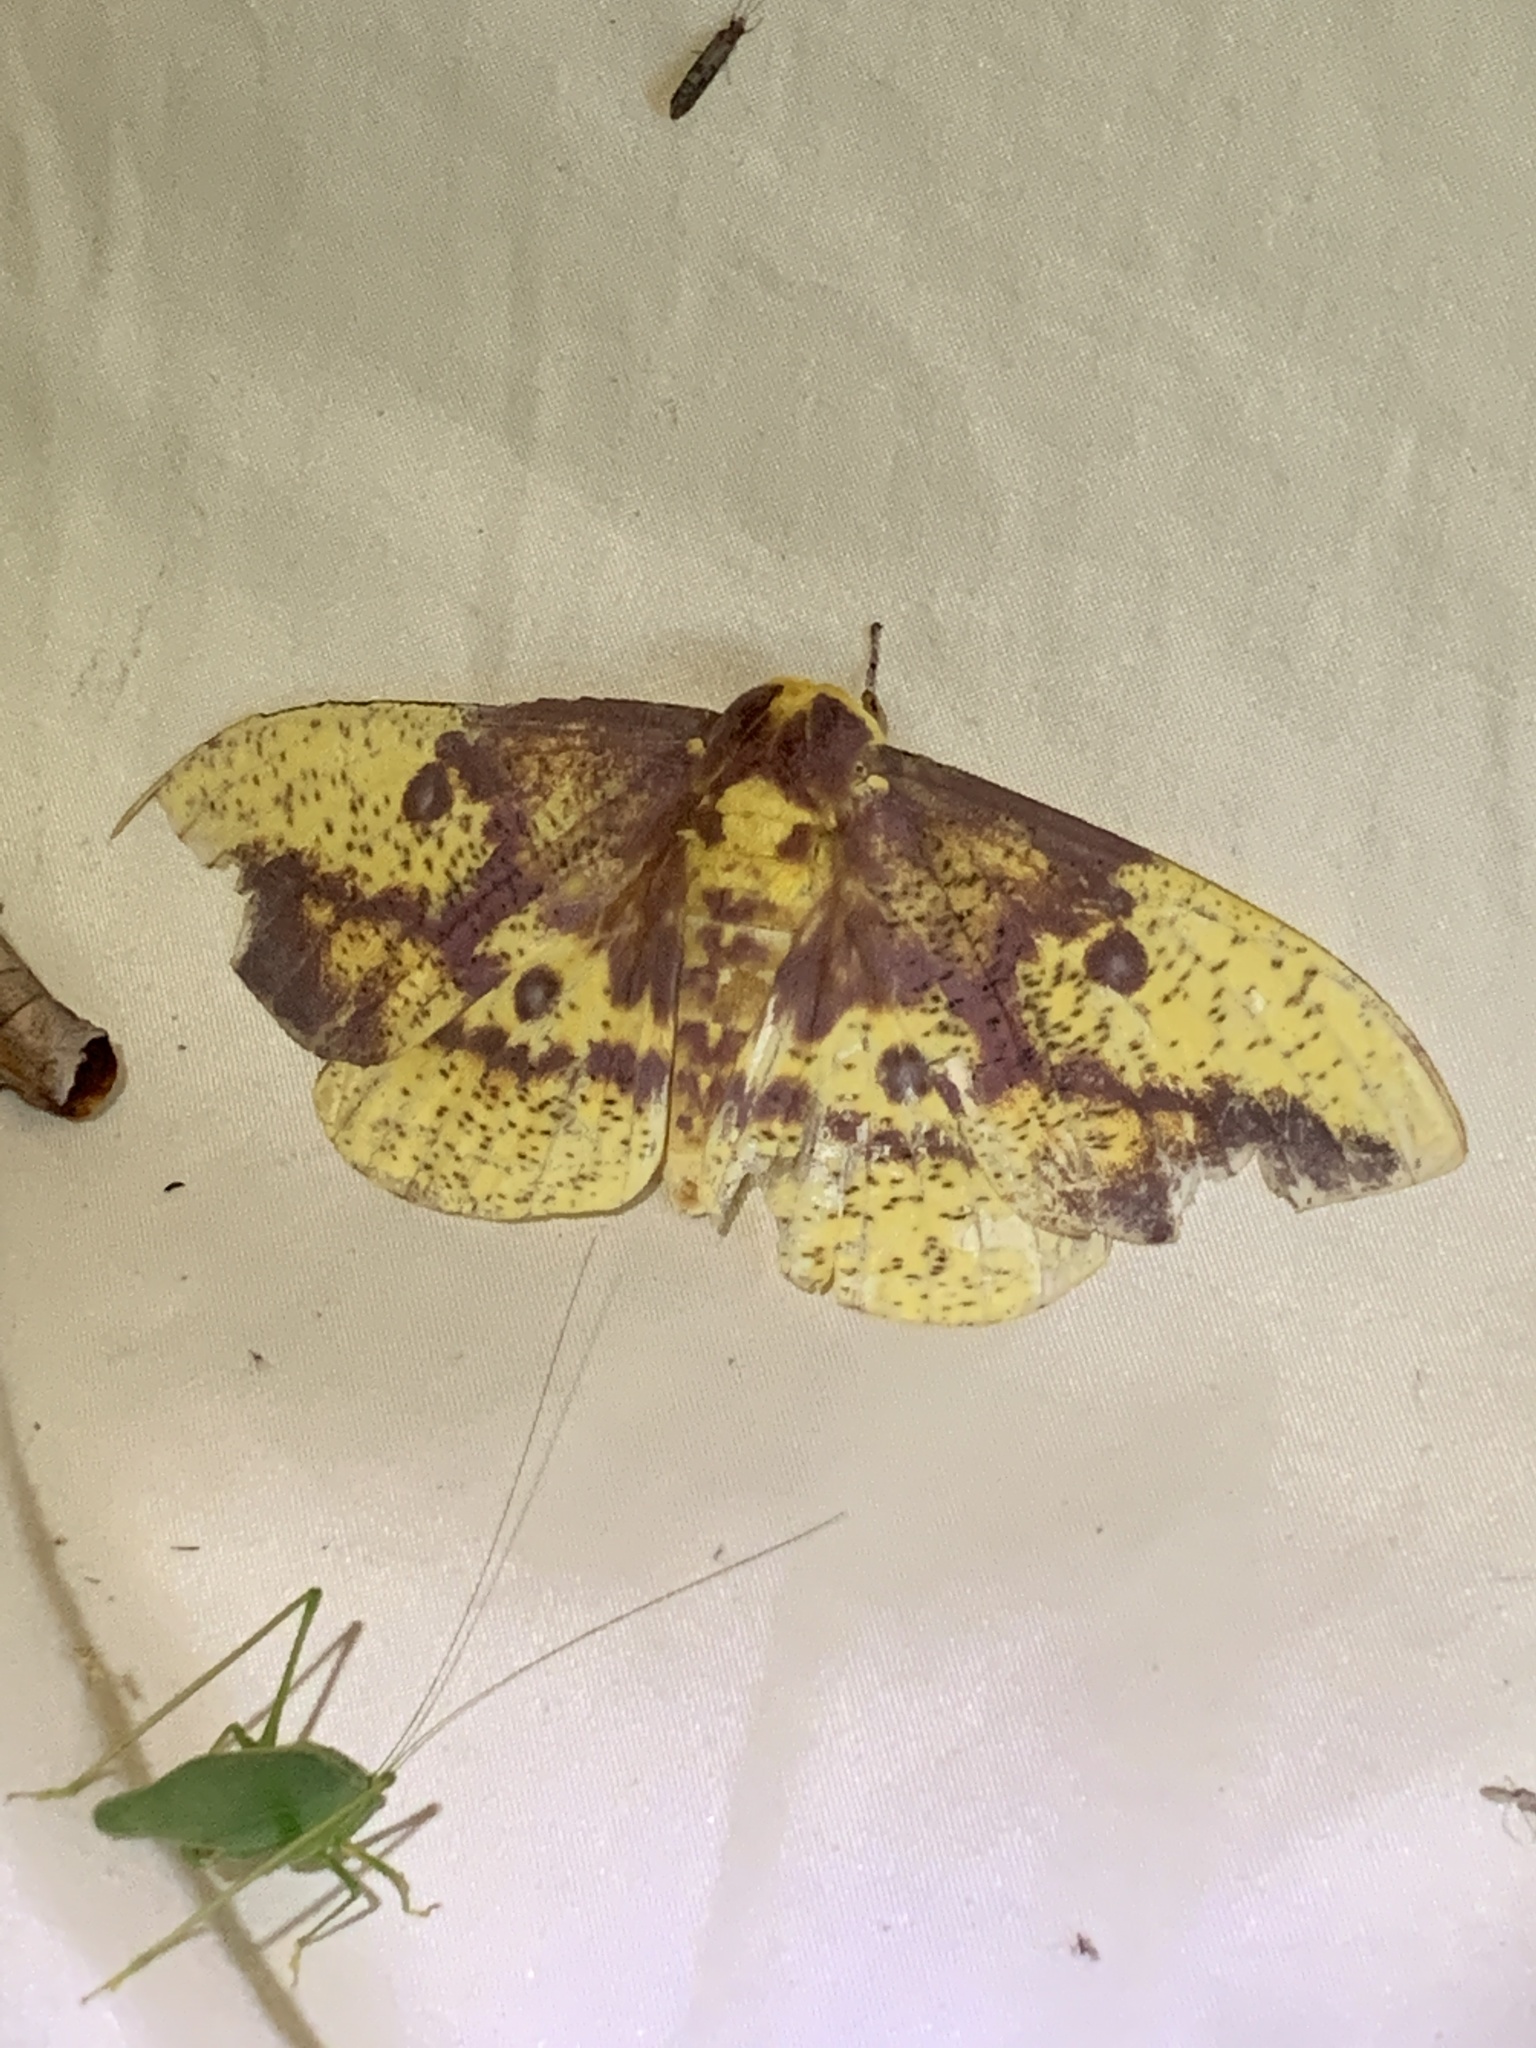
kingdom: Animalia
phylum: Arthropoda
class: Insecta
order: Lepidoptera
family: Saturniidae
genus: Eacles
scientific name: Eacles imperialis
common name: Imperial moth
